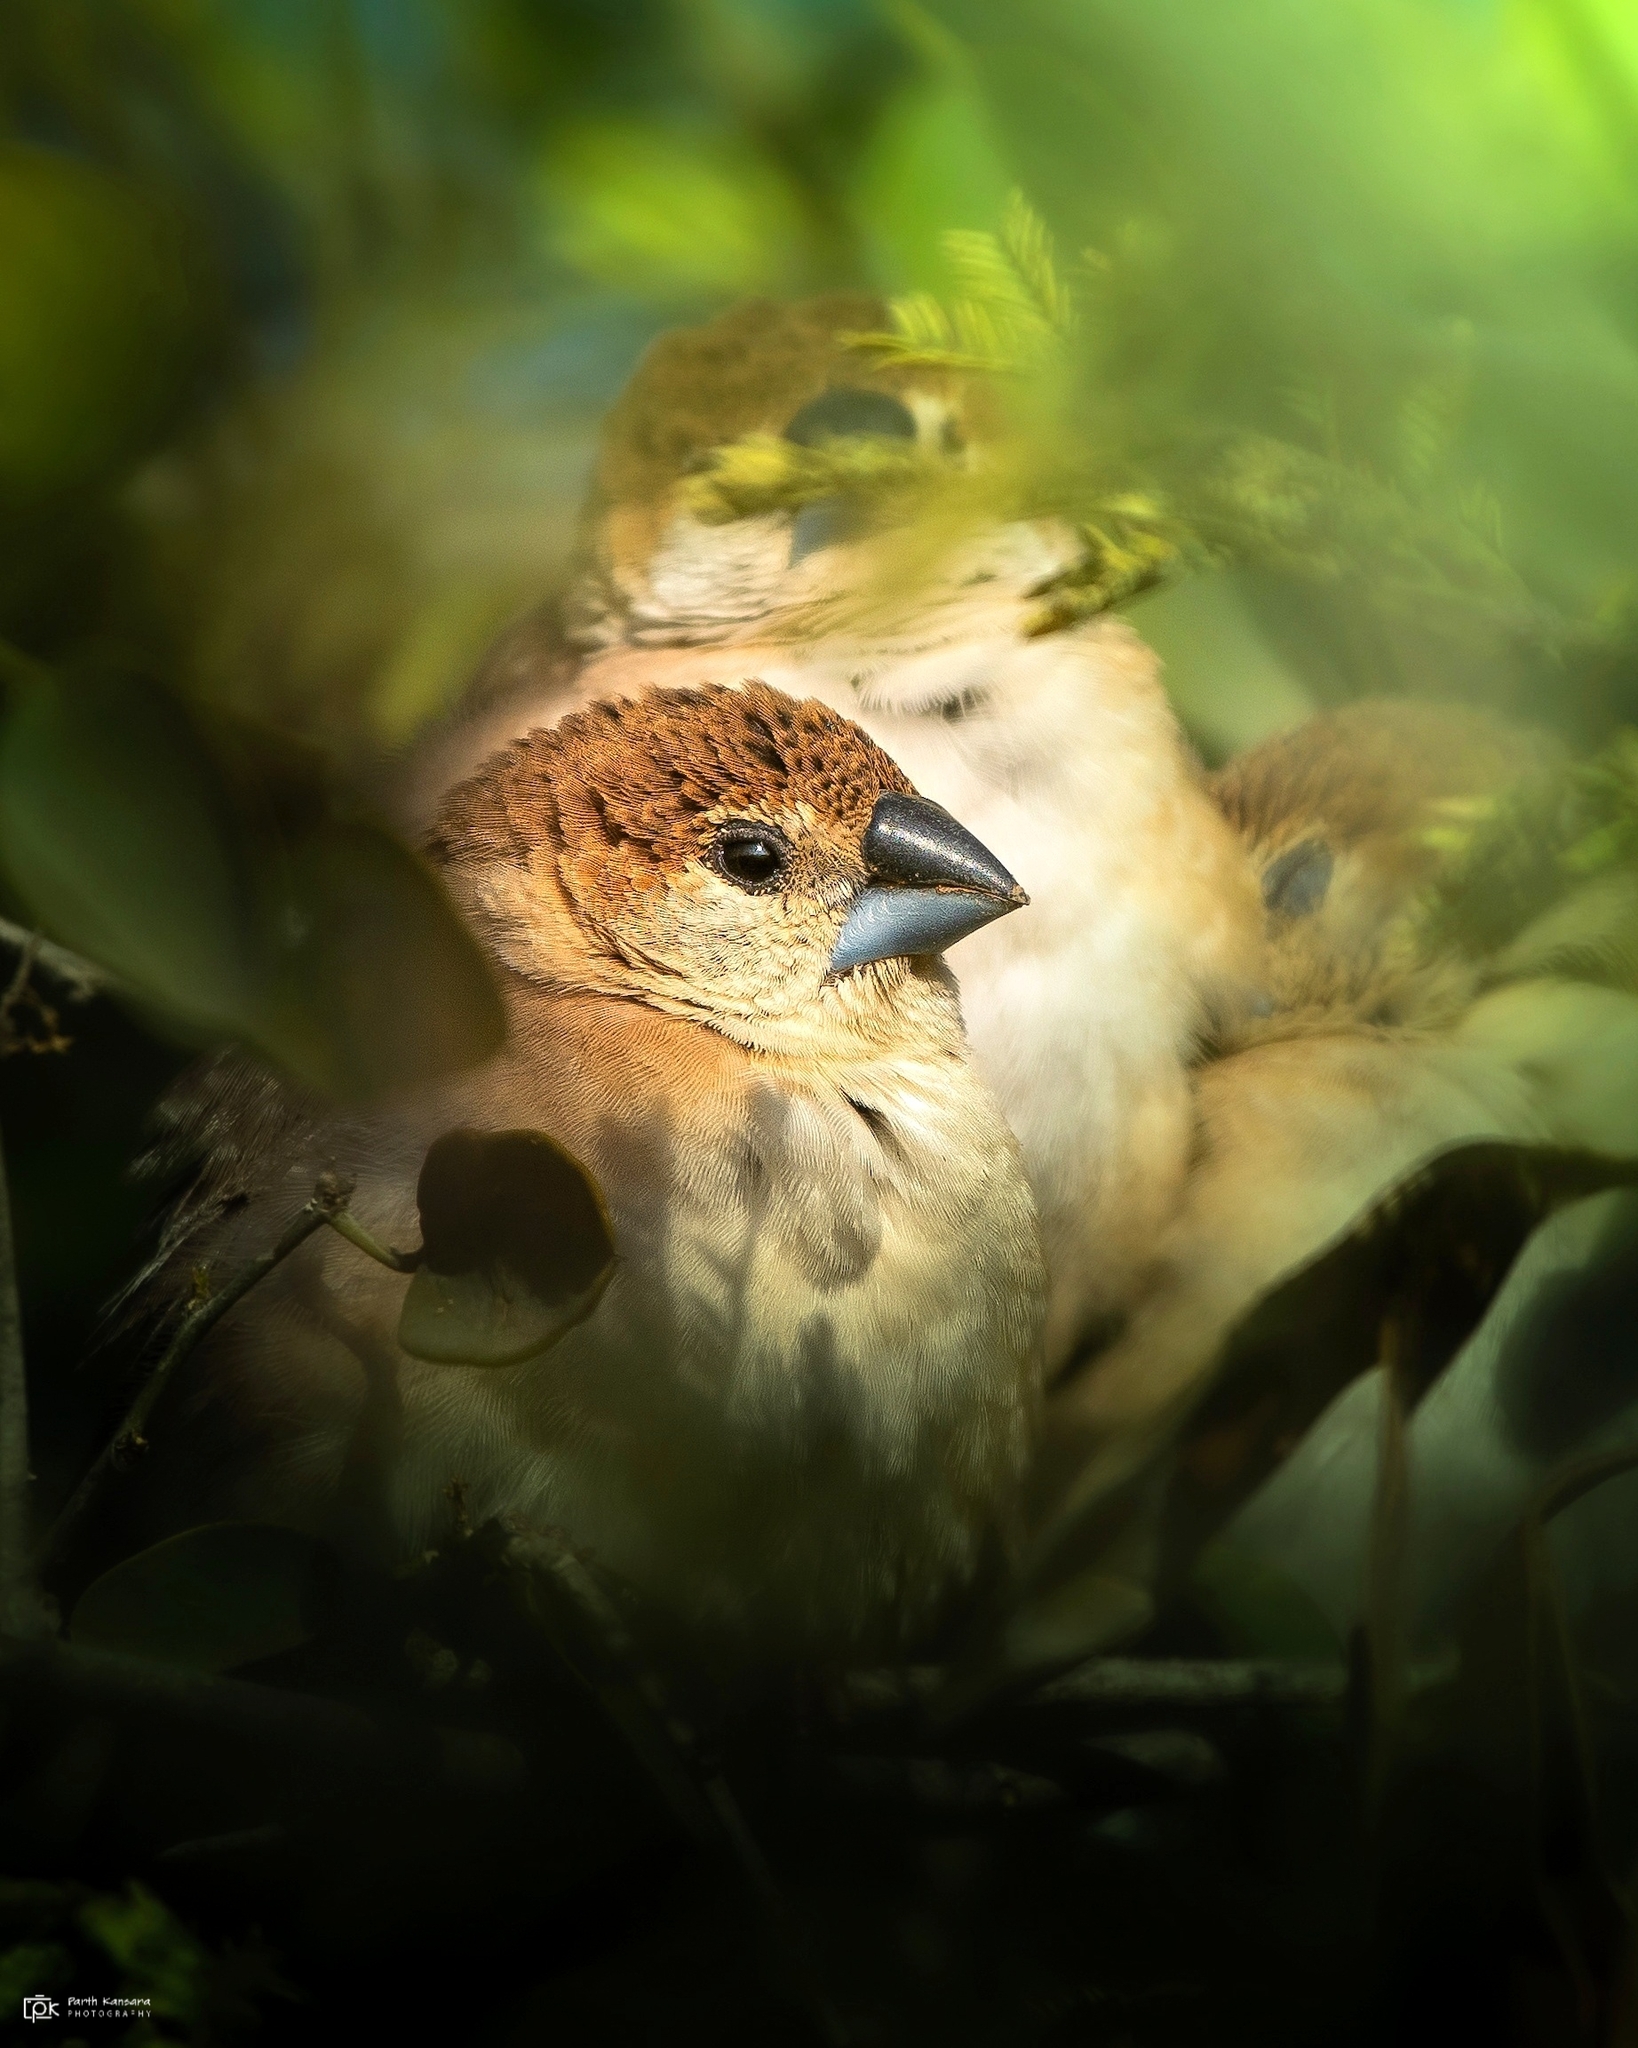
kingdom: Animalia
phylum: Chordata
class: Aves
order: Passeriformes
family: Estrildidae
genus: Euodice
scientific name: Euodice malabarica
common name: Indian silverbill
